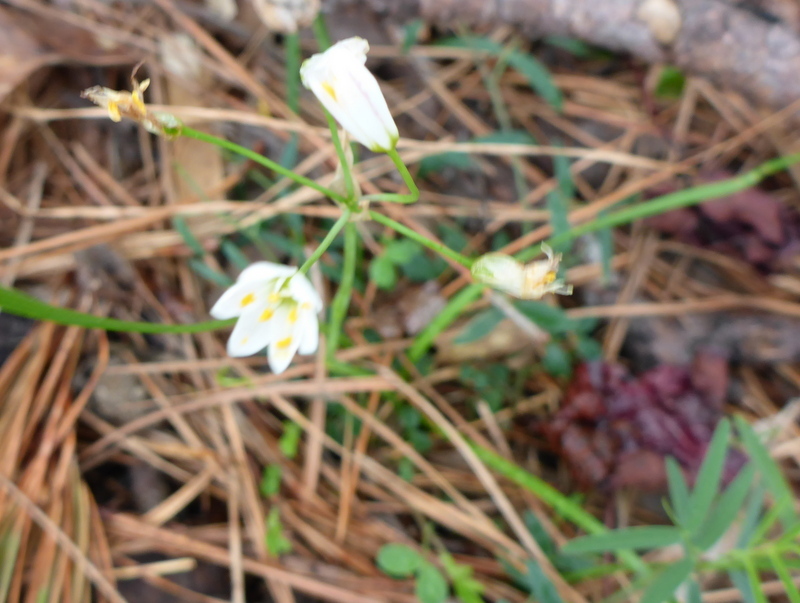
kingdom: Plantae
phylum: Tracheophyta
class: Liliopsida
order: Asparagales
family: Amaryllidaceae
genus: Nothoscordum
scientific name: Nothoscordum bivalve
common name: Crow-poison
